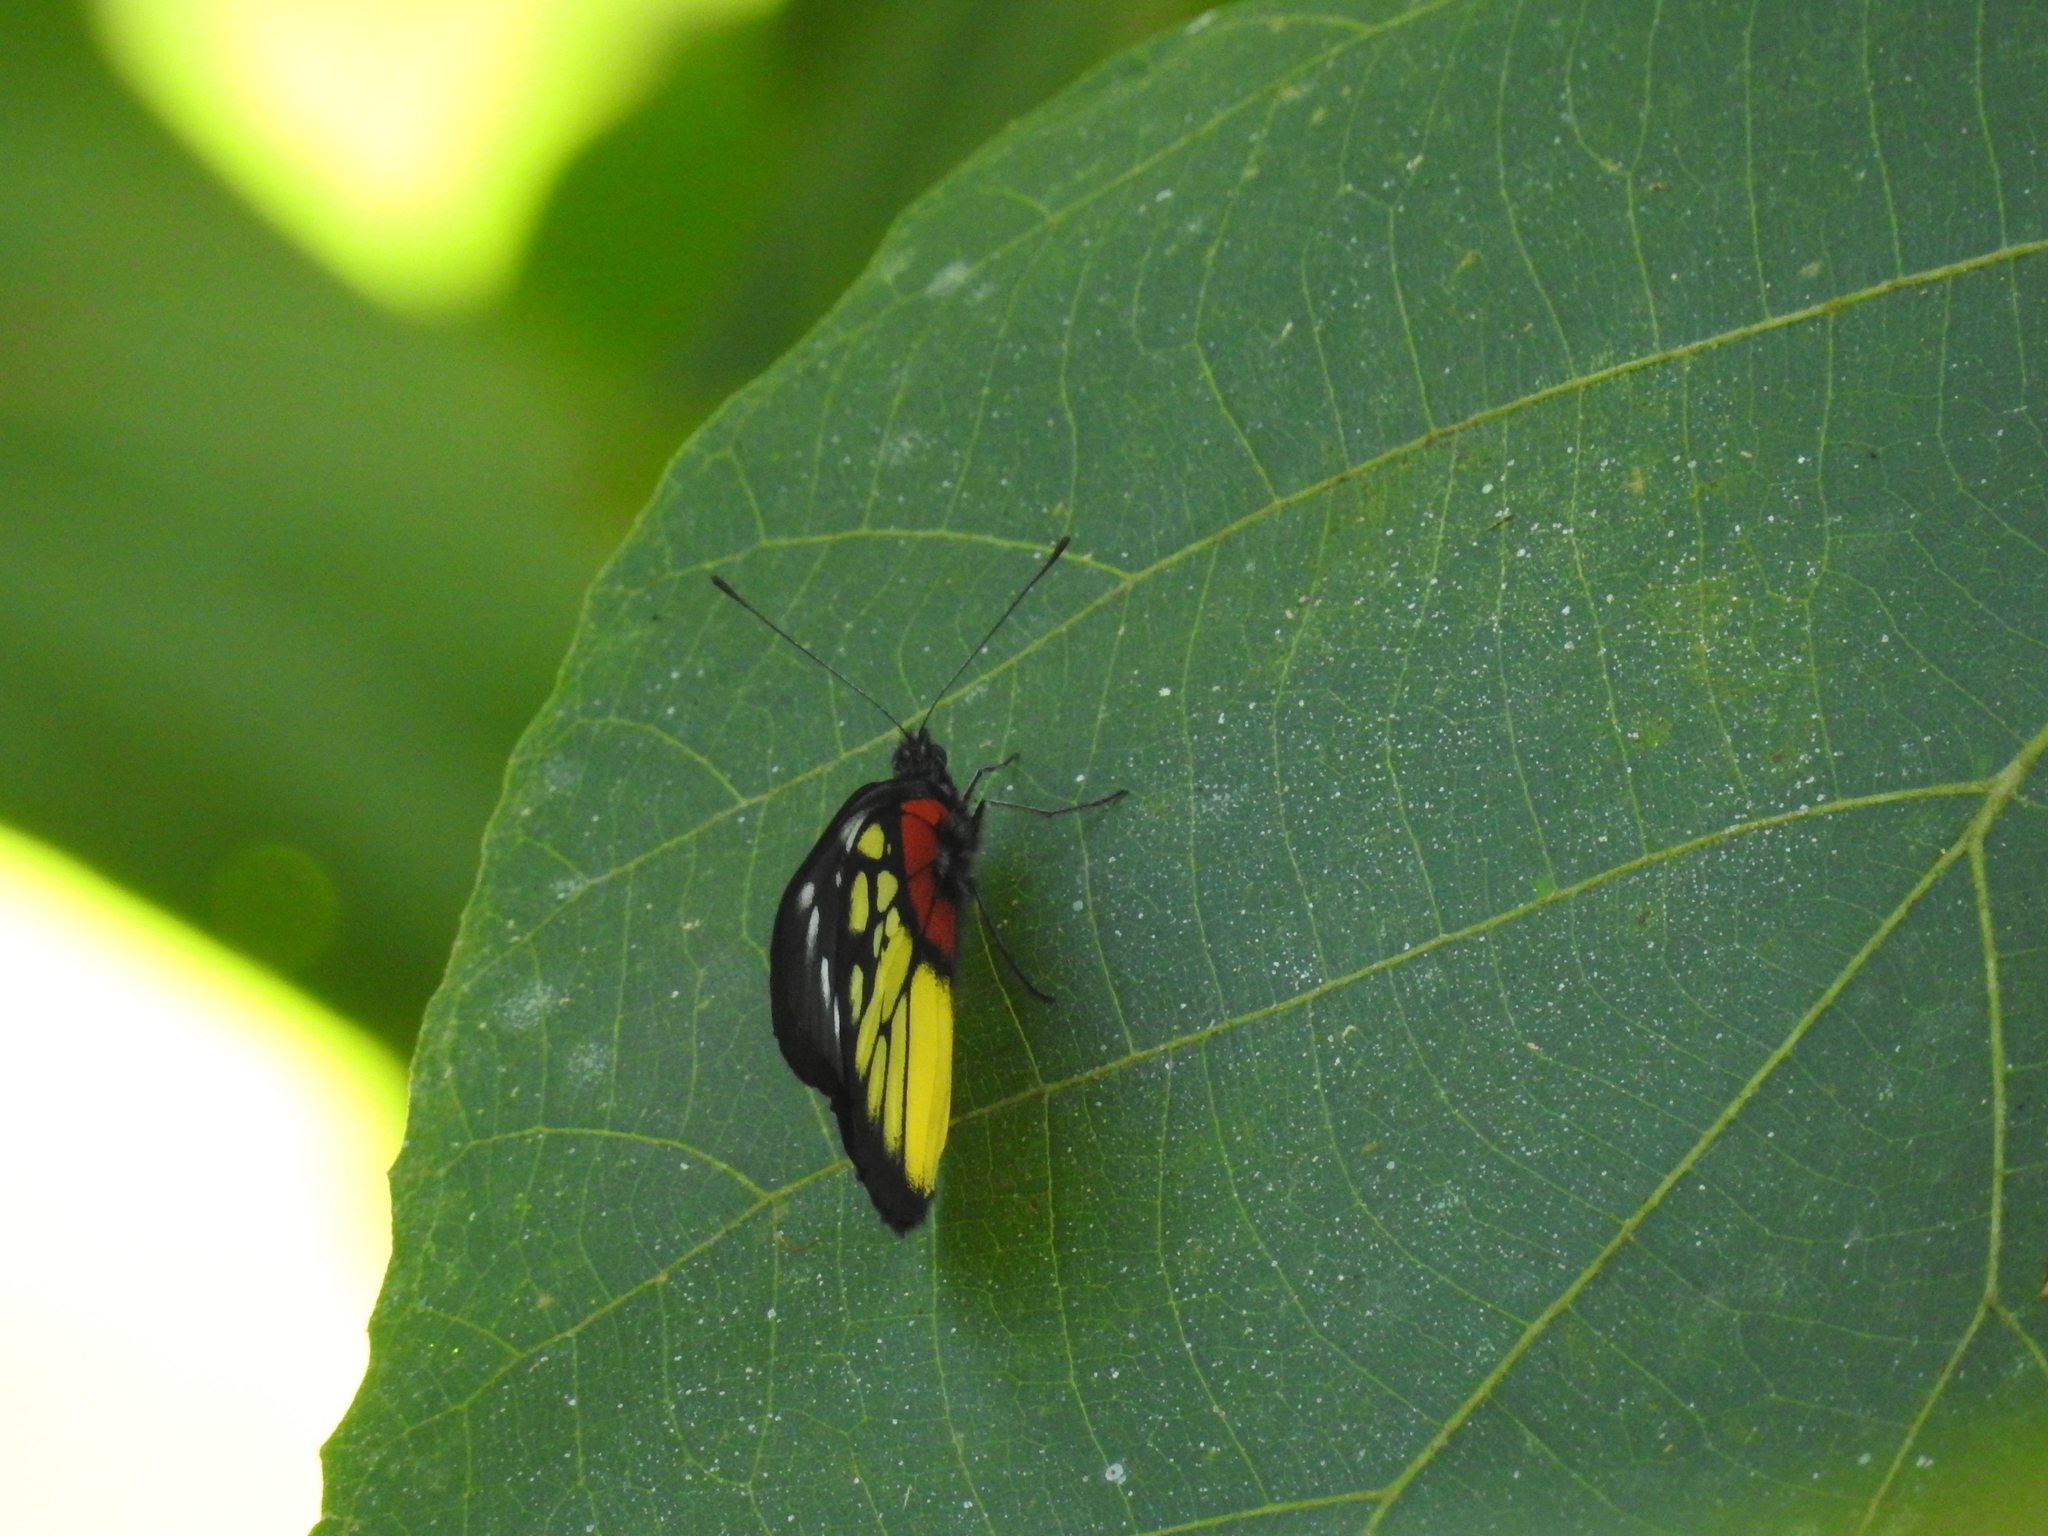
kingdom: Animalia
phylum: Arthropoda
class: Insecta
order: Lepidoptera
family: Pieridae
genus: Delias
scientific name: Delias pasithoe
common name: Red-base jezebel
